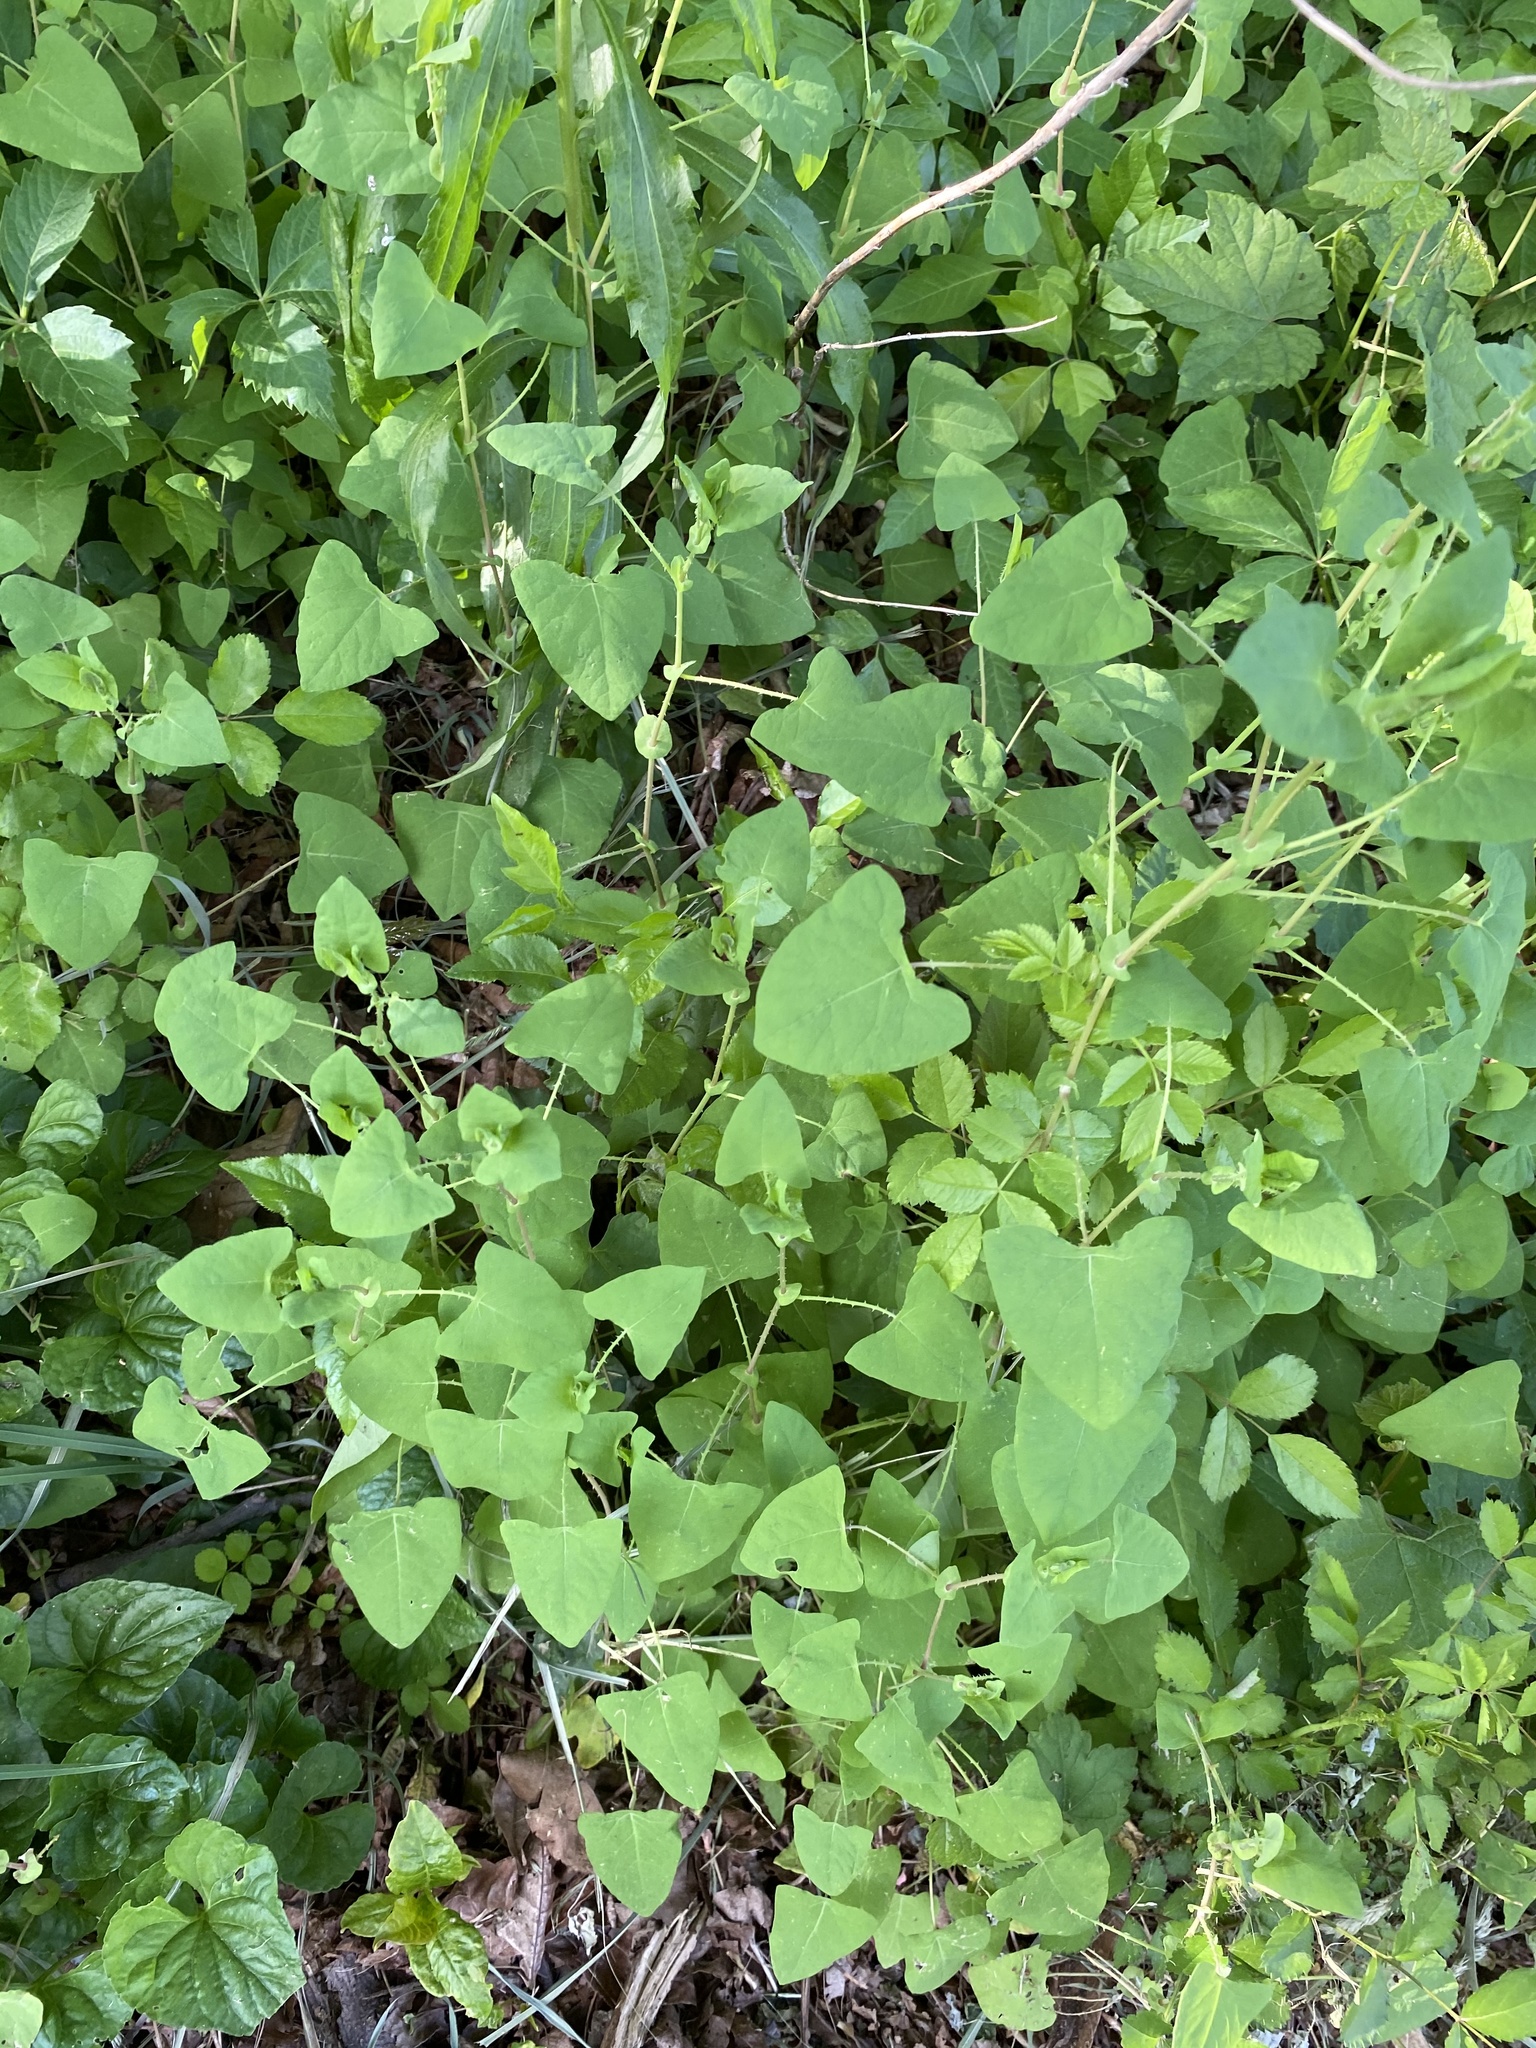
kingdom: Plantae
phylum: Tracheophyta
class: Magnoliopsida
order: Caryophyllales
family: Polygonaceae
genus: Persicaria
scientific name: Persicaria perfoliata
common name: Asiatic tearthumb
